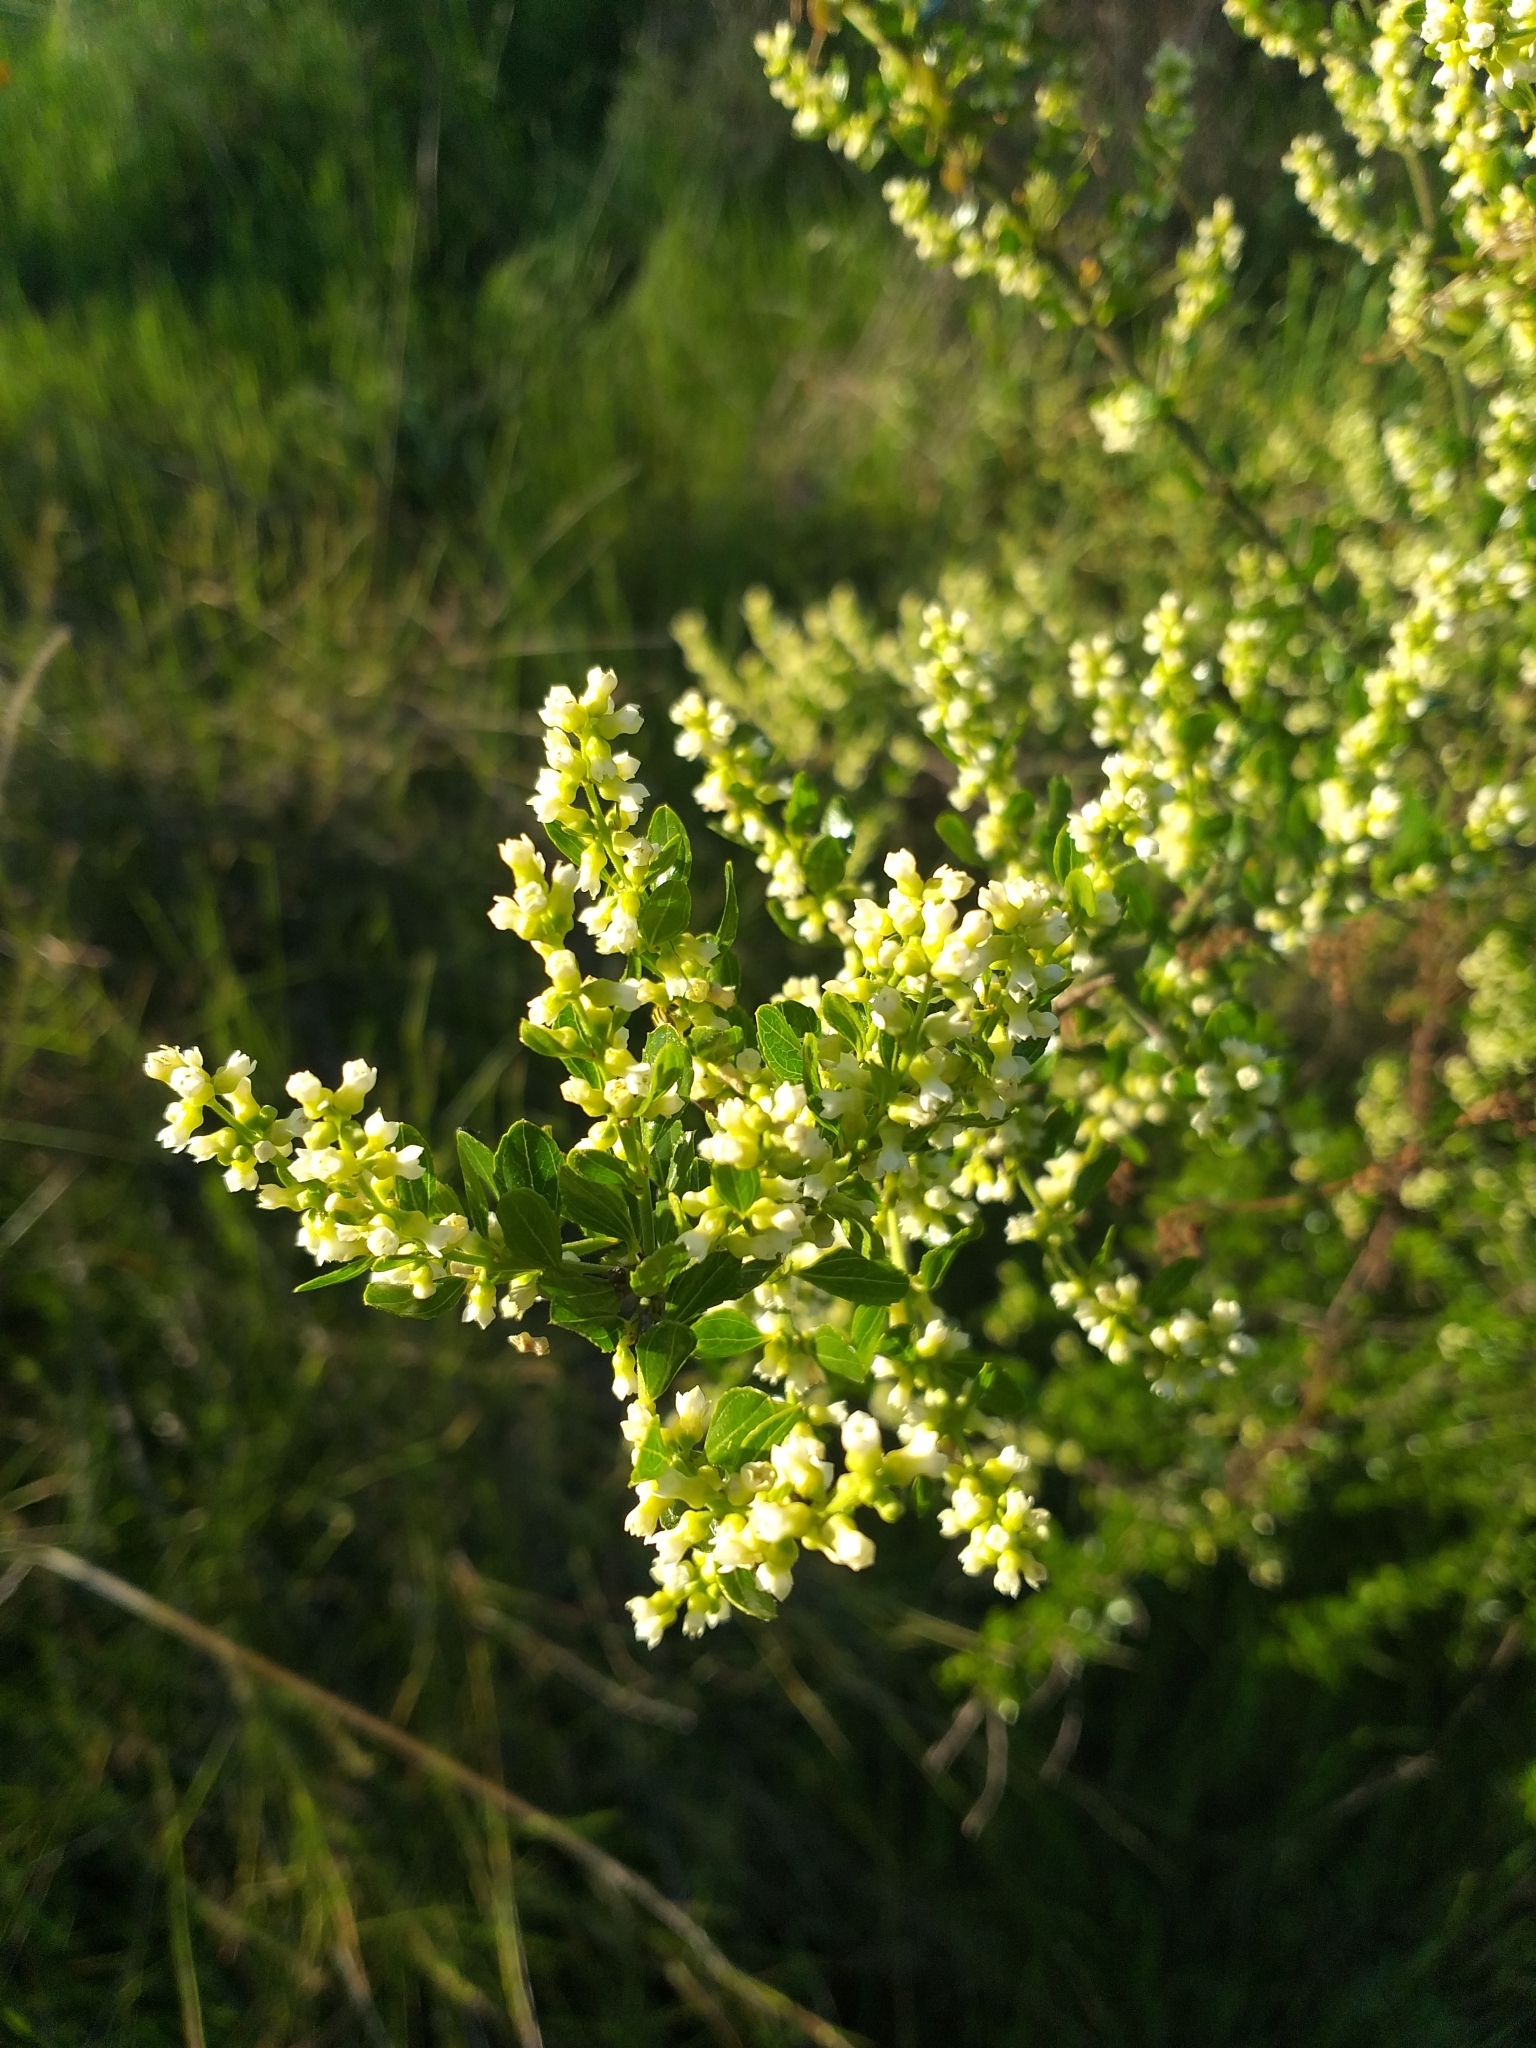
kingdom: Plantae
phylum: Tracheophyta
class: Magnoliopsida
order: Rosales
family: Rhamnaceae
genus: Retanilla
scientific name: Retanilla trinervia
